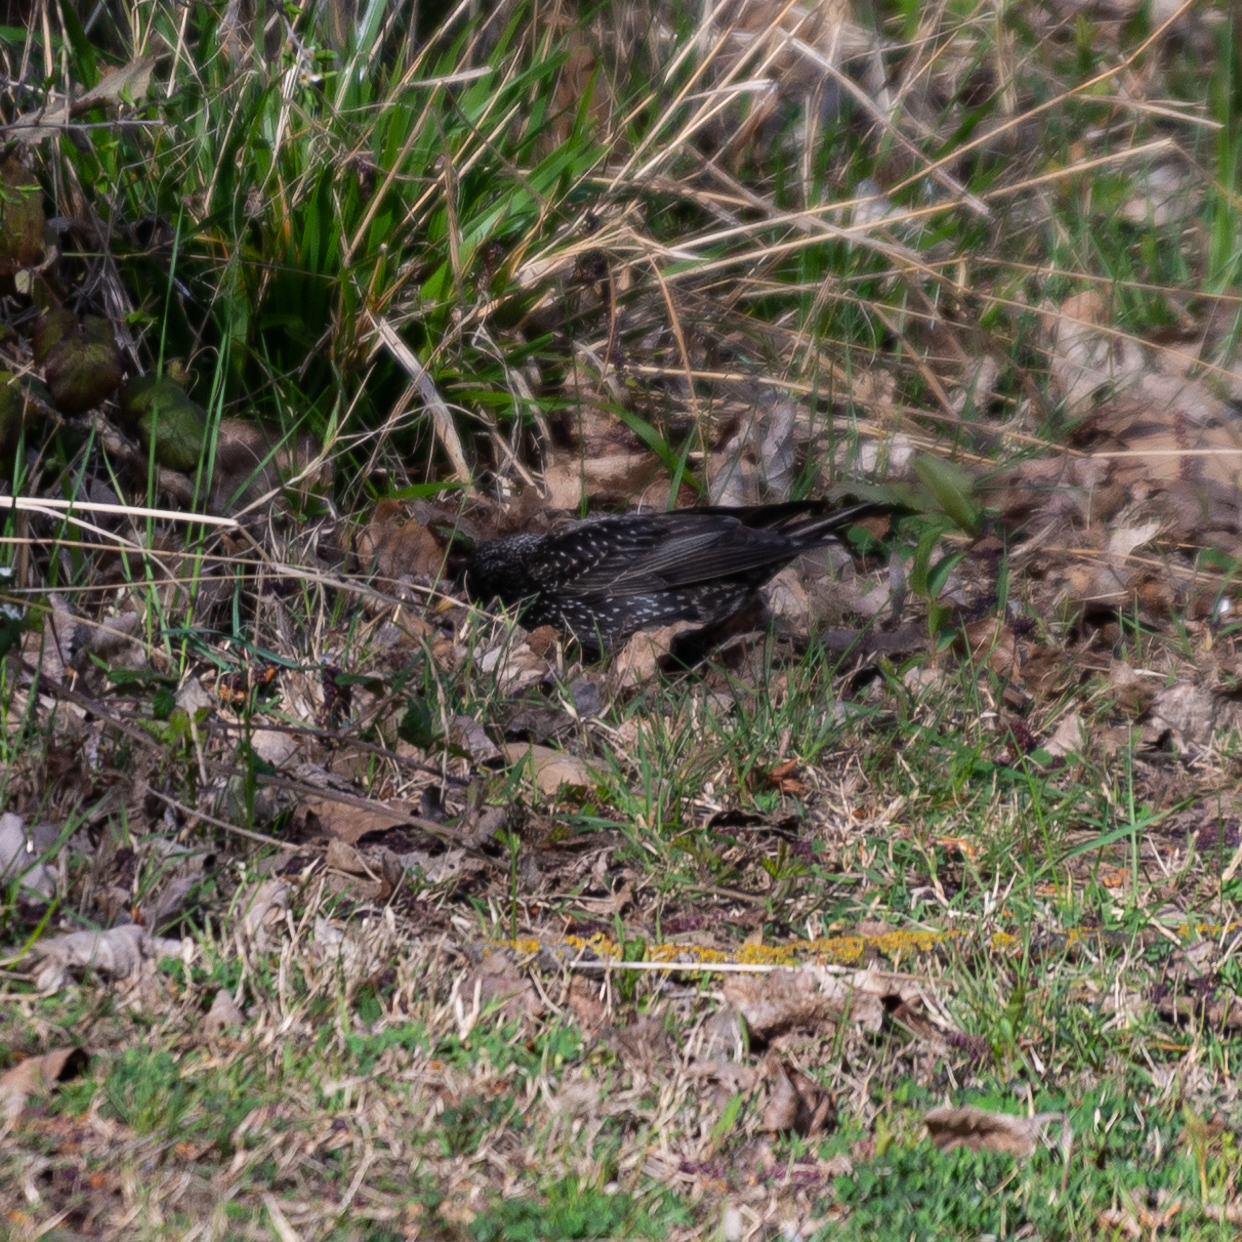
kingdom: Animalia
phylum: Chordata
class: Aves
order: Passeriformes
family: Sturnidae
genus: Sturnus
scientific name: Sturnus unicolor
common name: Spotless starling
